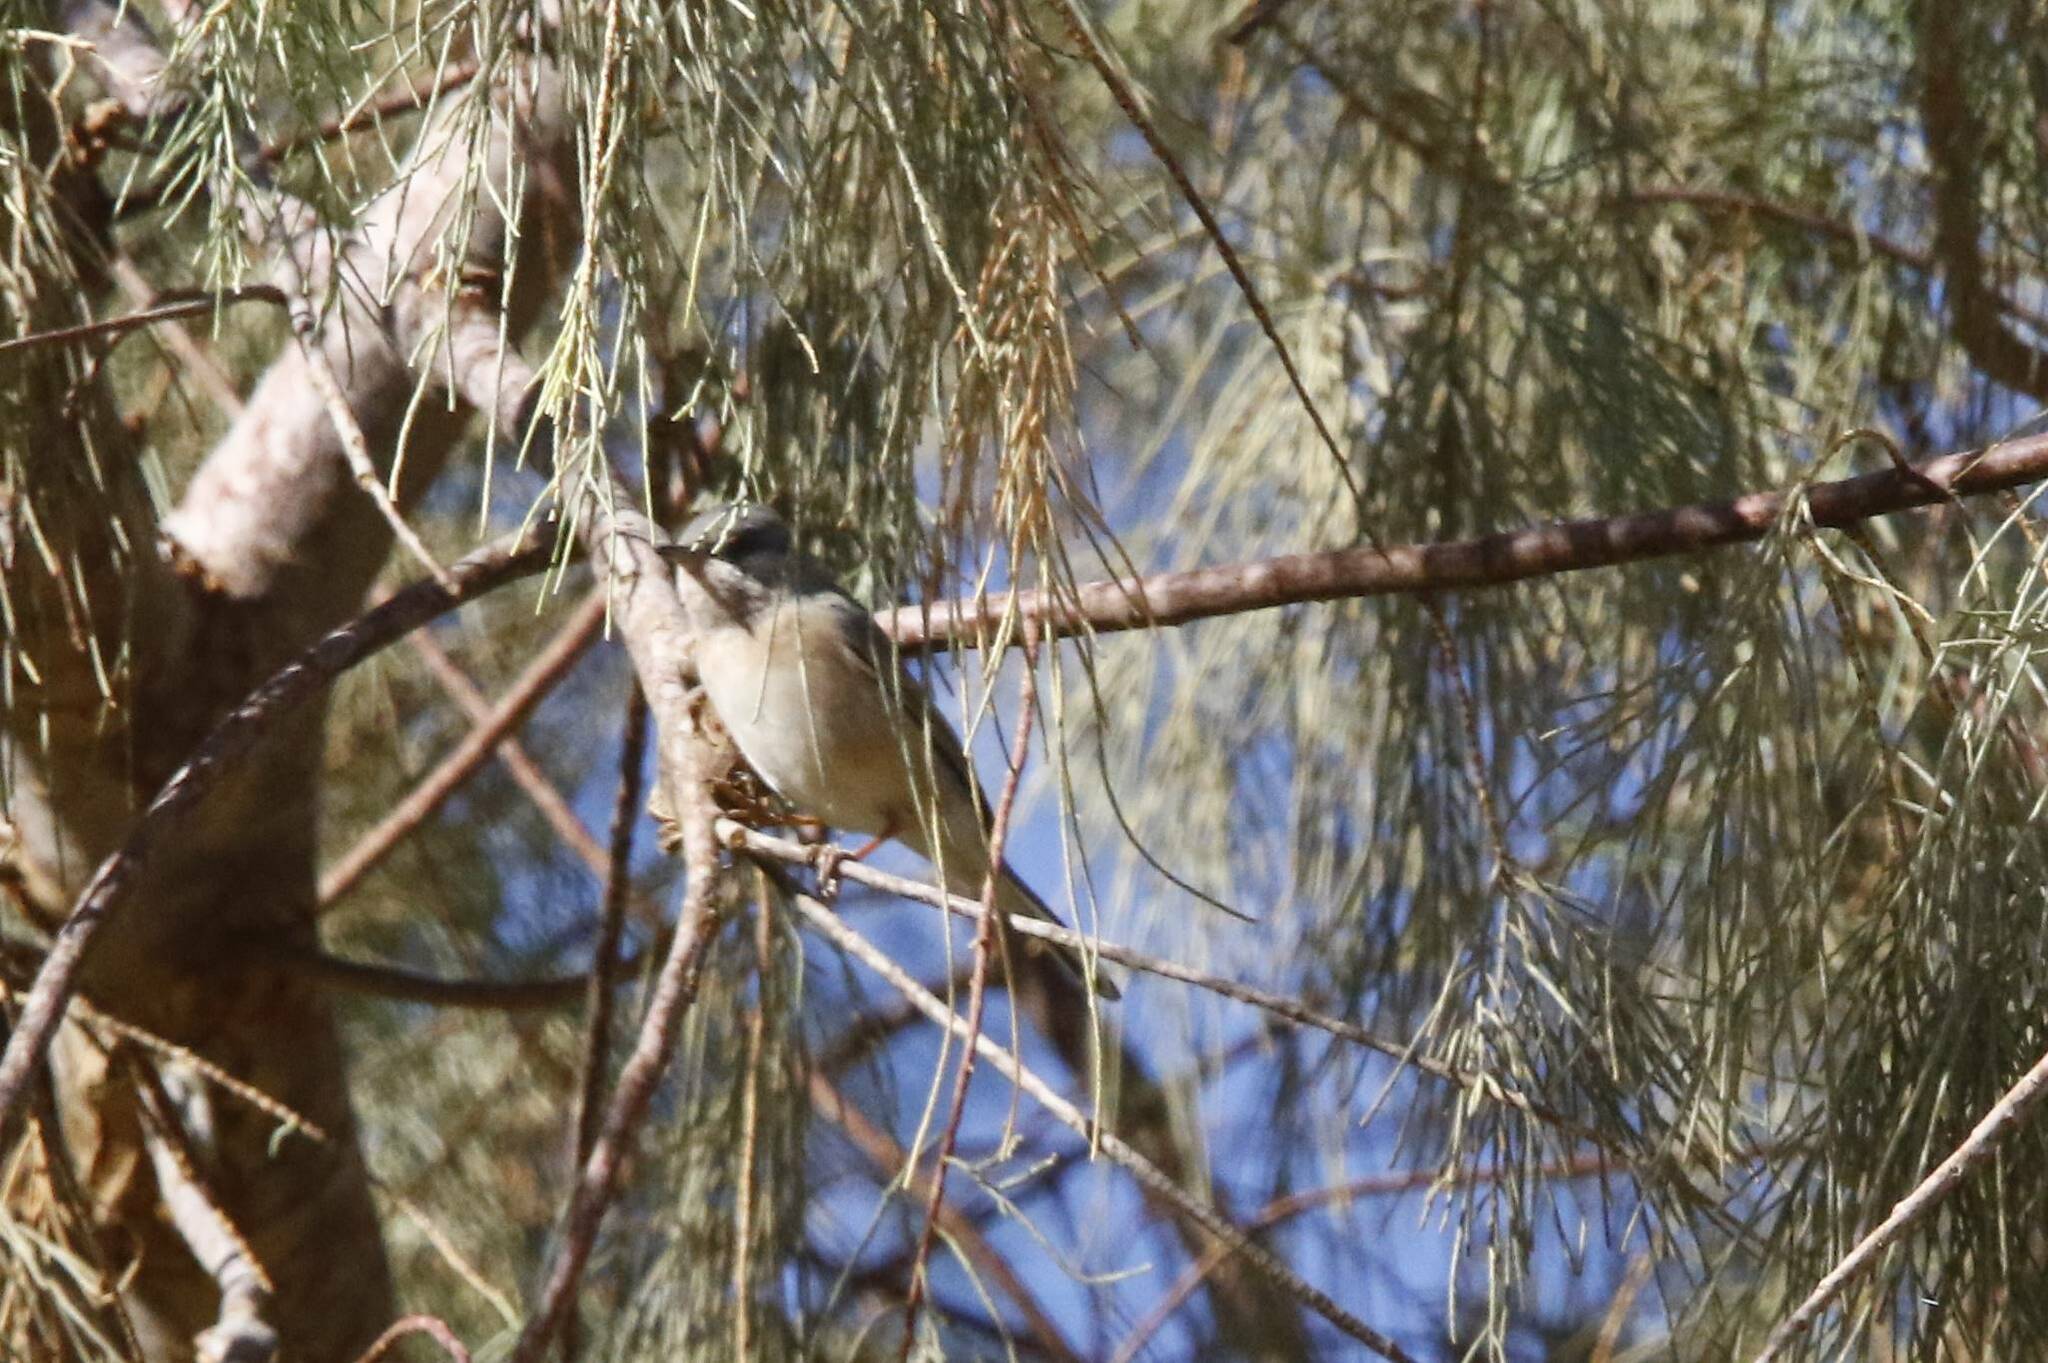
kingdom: Animalia
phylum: Chordata
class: Aves
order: Passeriformes
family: Sylviidae
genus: Curruca
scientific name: Curruca subalpina
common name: Moltoni's warbler
